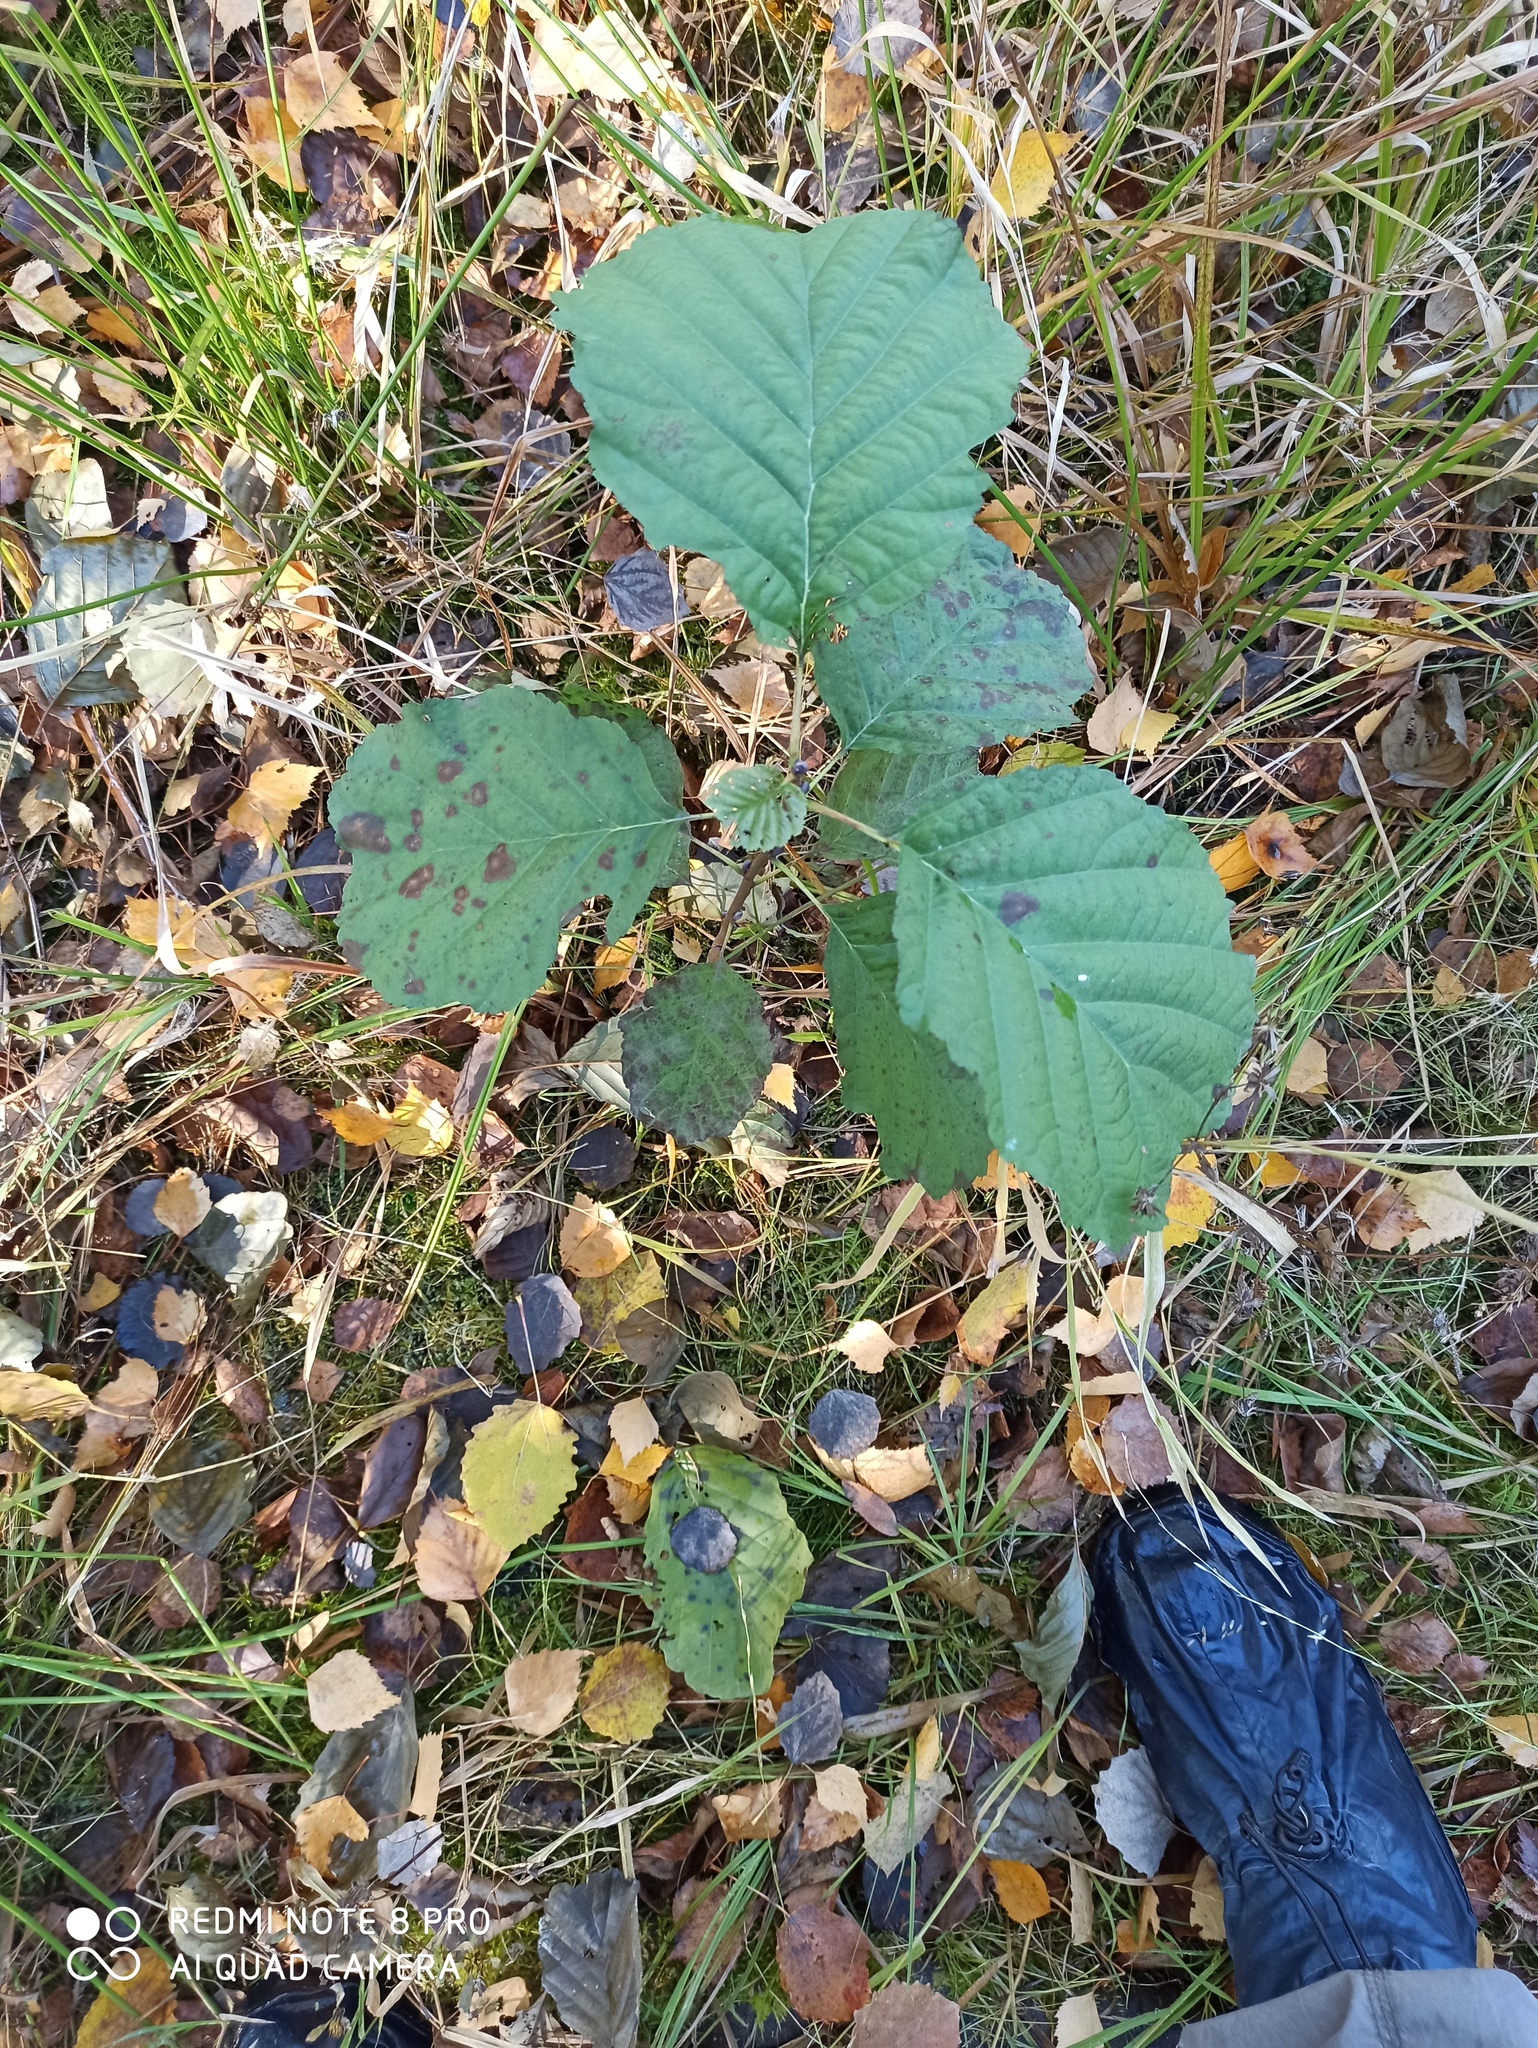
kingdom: Plantae
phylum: Tracheophyta
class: Magnoliopsida
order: Fagales
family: Betulaceae
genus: Alnus
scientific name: Alnus glutinosa
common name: Black alder
